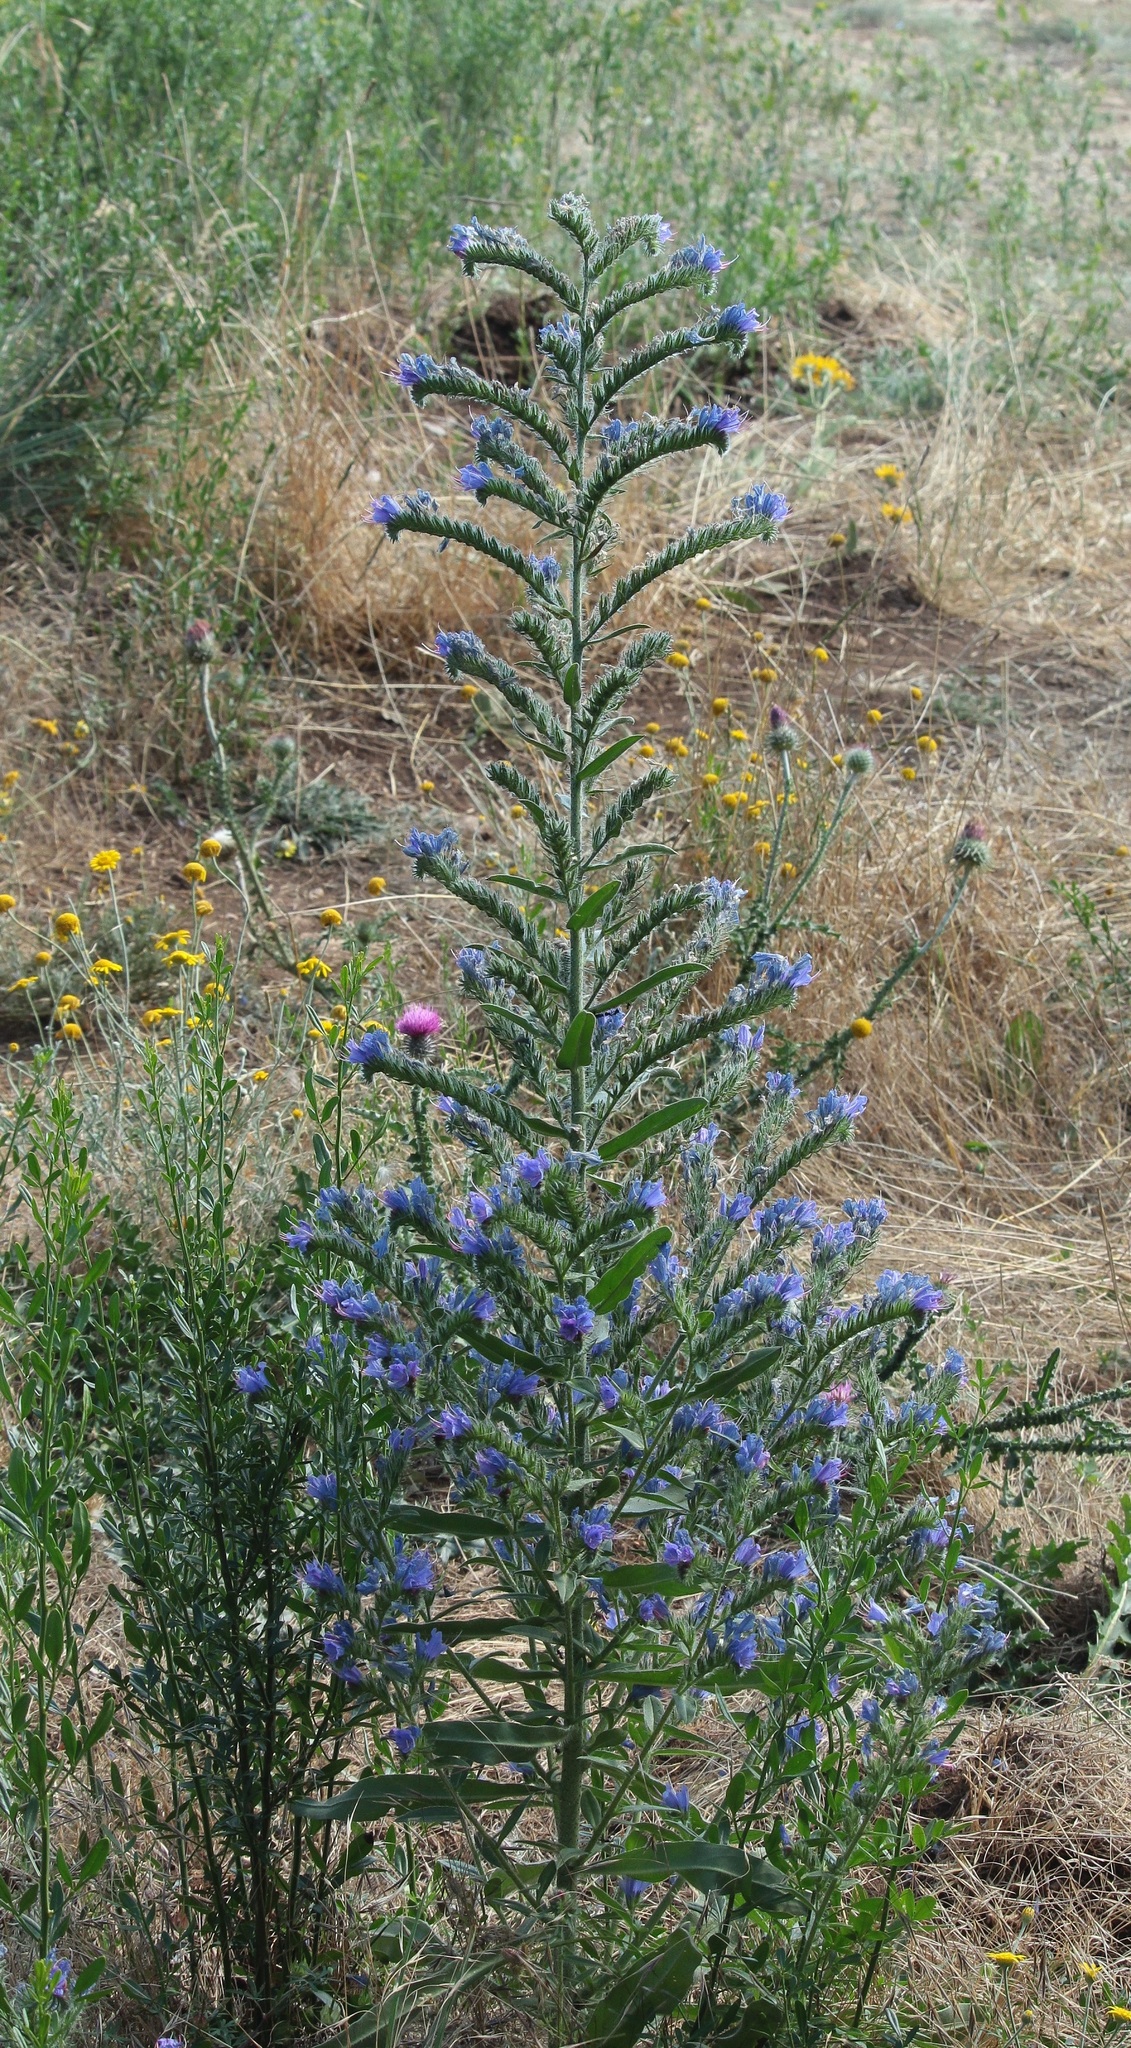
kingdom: Plantae
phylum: Tracheophyta
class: Magnoliopsida
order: Boraginales
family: Boraginaceae
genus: Echium
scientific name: Echium vulgare
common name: Common viper's bugloss
